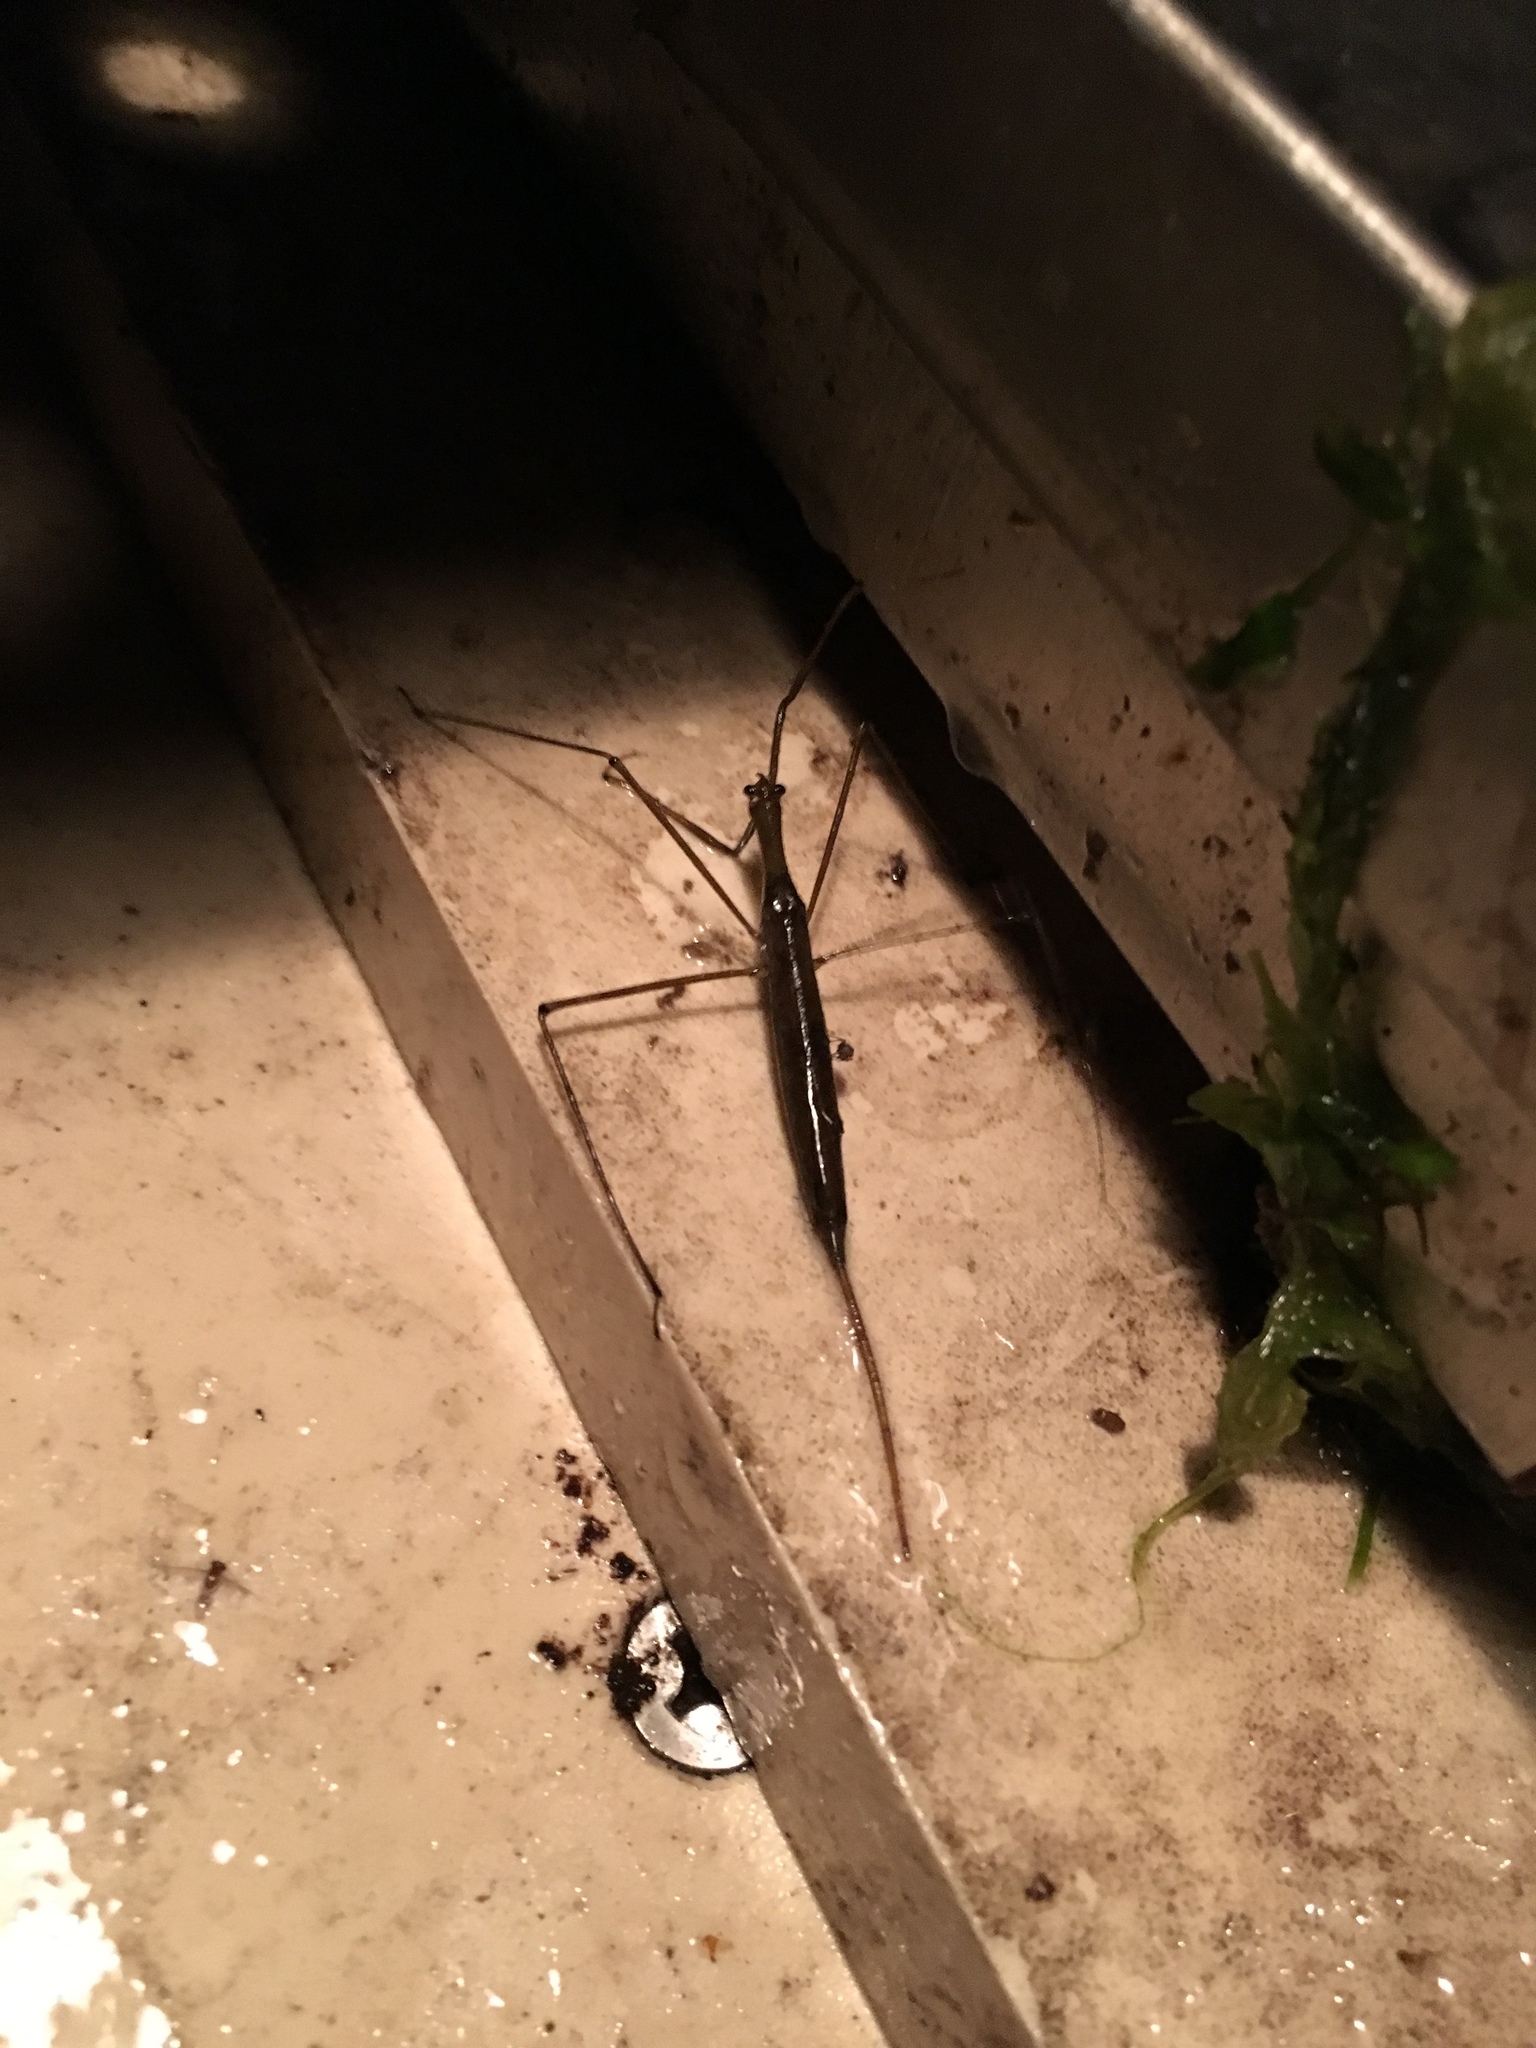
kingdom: Animalia
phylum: Arthropoda
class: Insecta
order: Hemiptera
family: Nepidae
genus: Ranatra
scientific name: Ranatra
